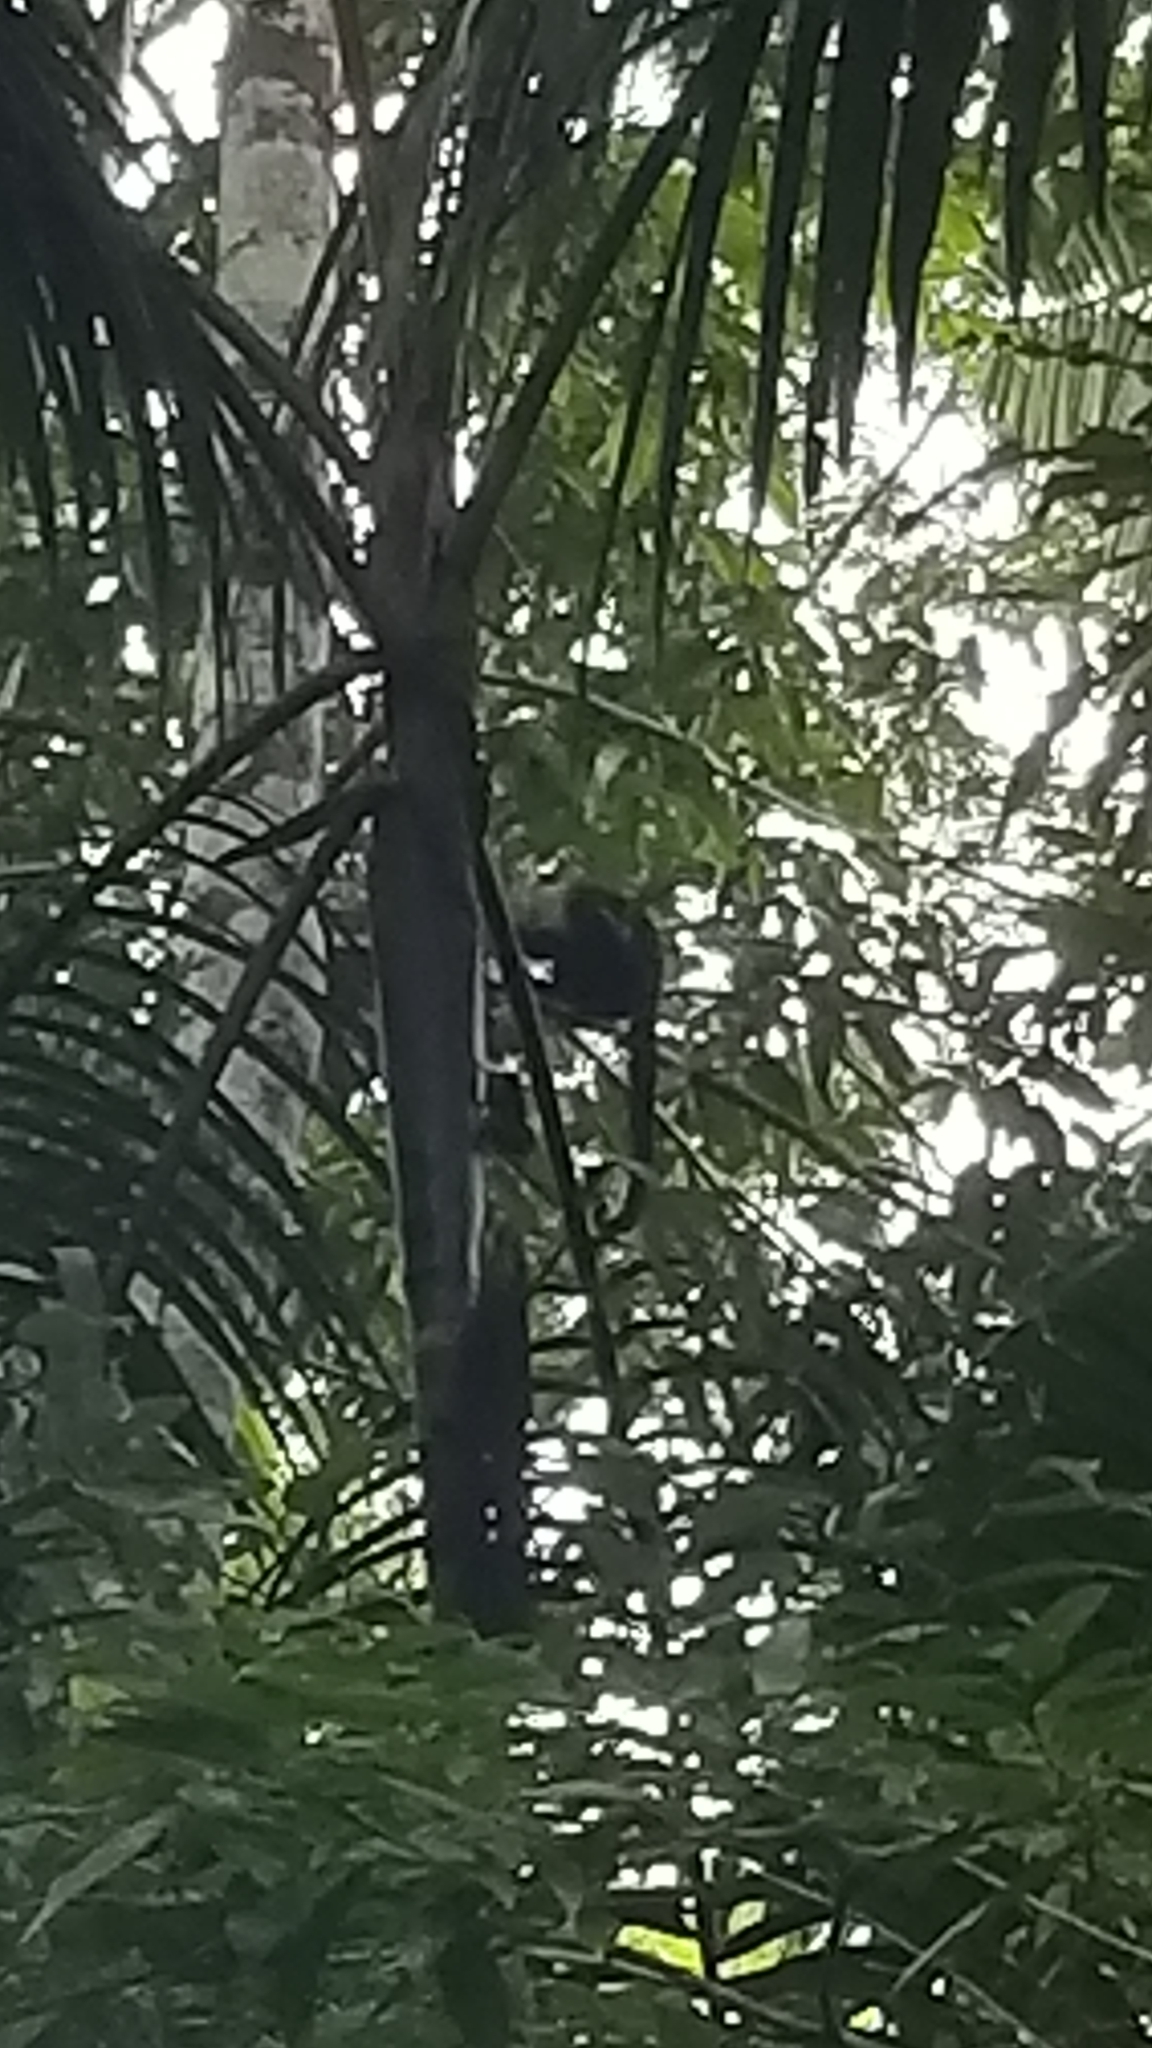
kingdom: Animalia
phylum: Chordata
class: Mammalia
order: Primates
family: Cebidae
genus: Cebus
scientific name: Cebus imitator
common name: Panamanian white-faced capuchin
